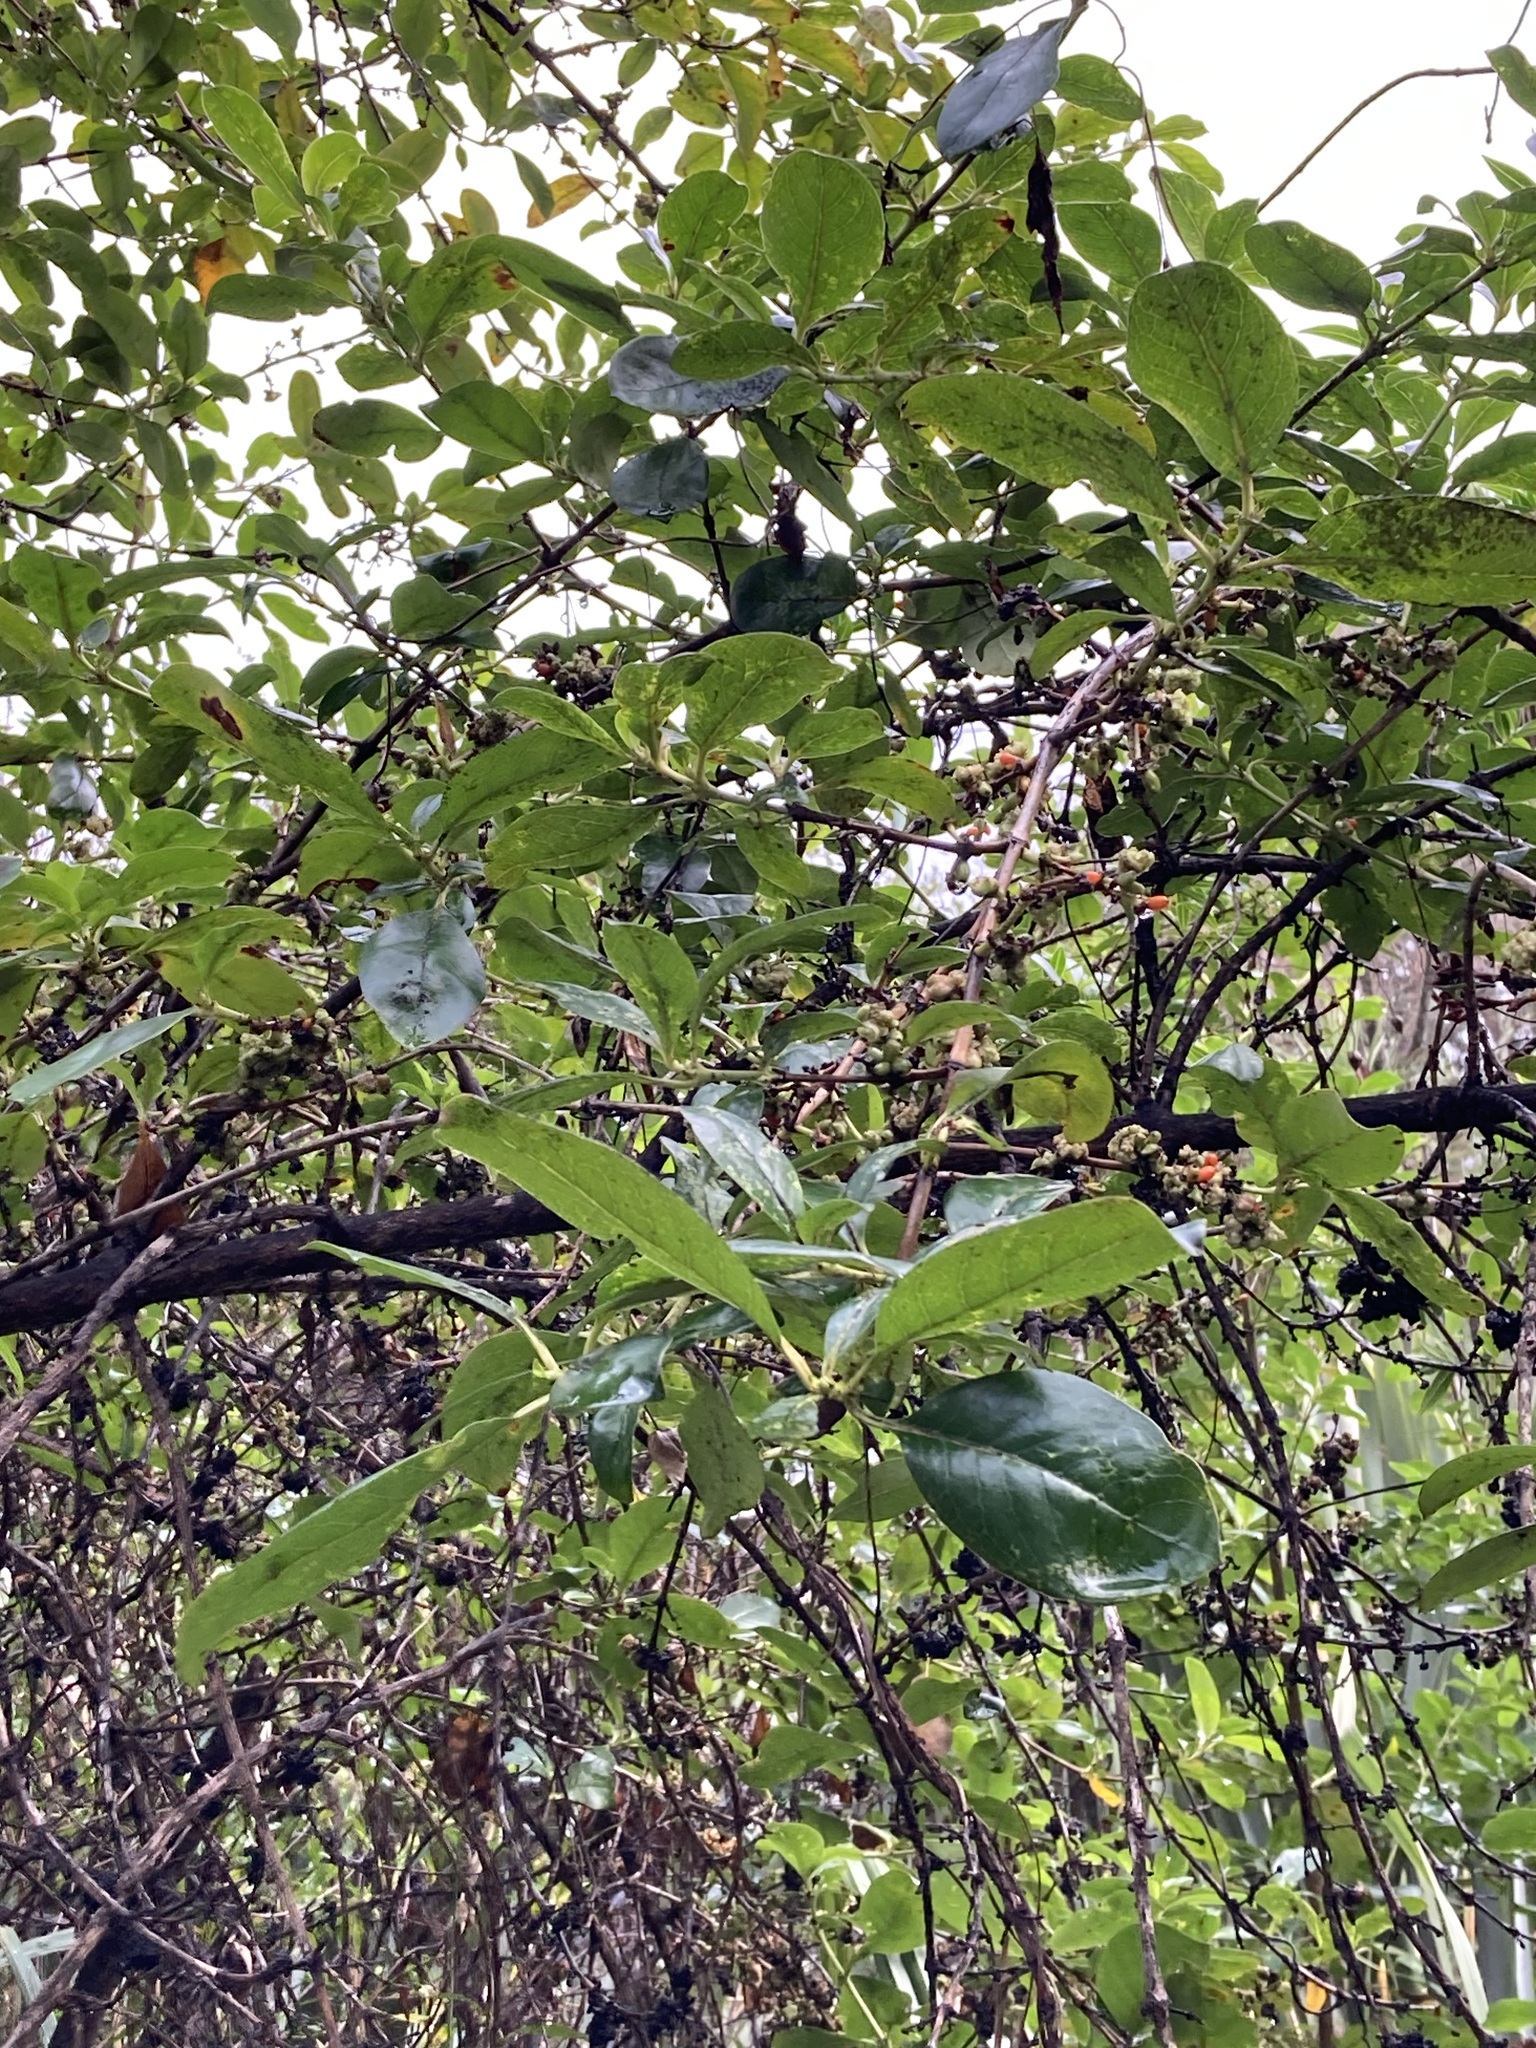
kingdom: Plantae
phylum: Tracheophyta
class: Magnoliopsida
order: Gentianales
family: Rubiaceae
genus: Coprosma
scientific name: Coprosma robusta
